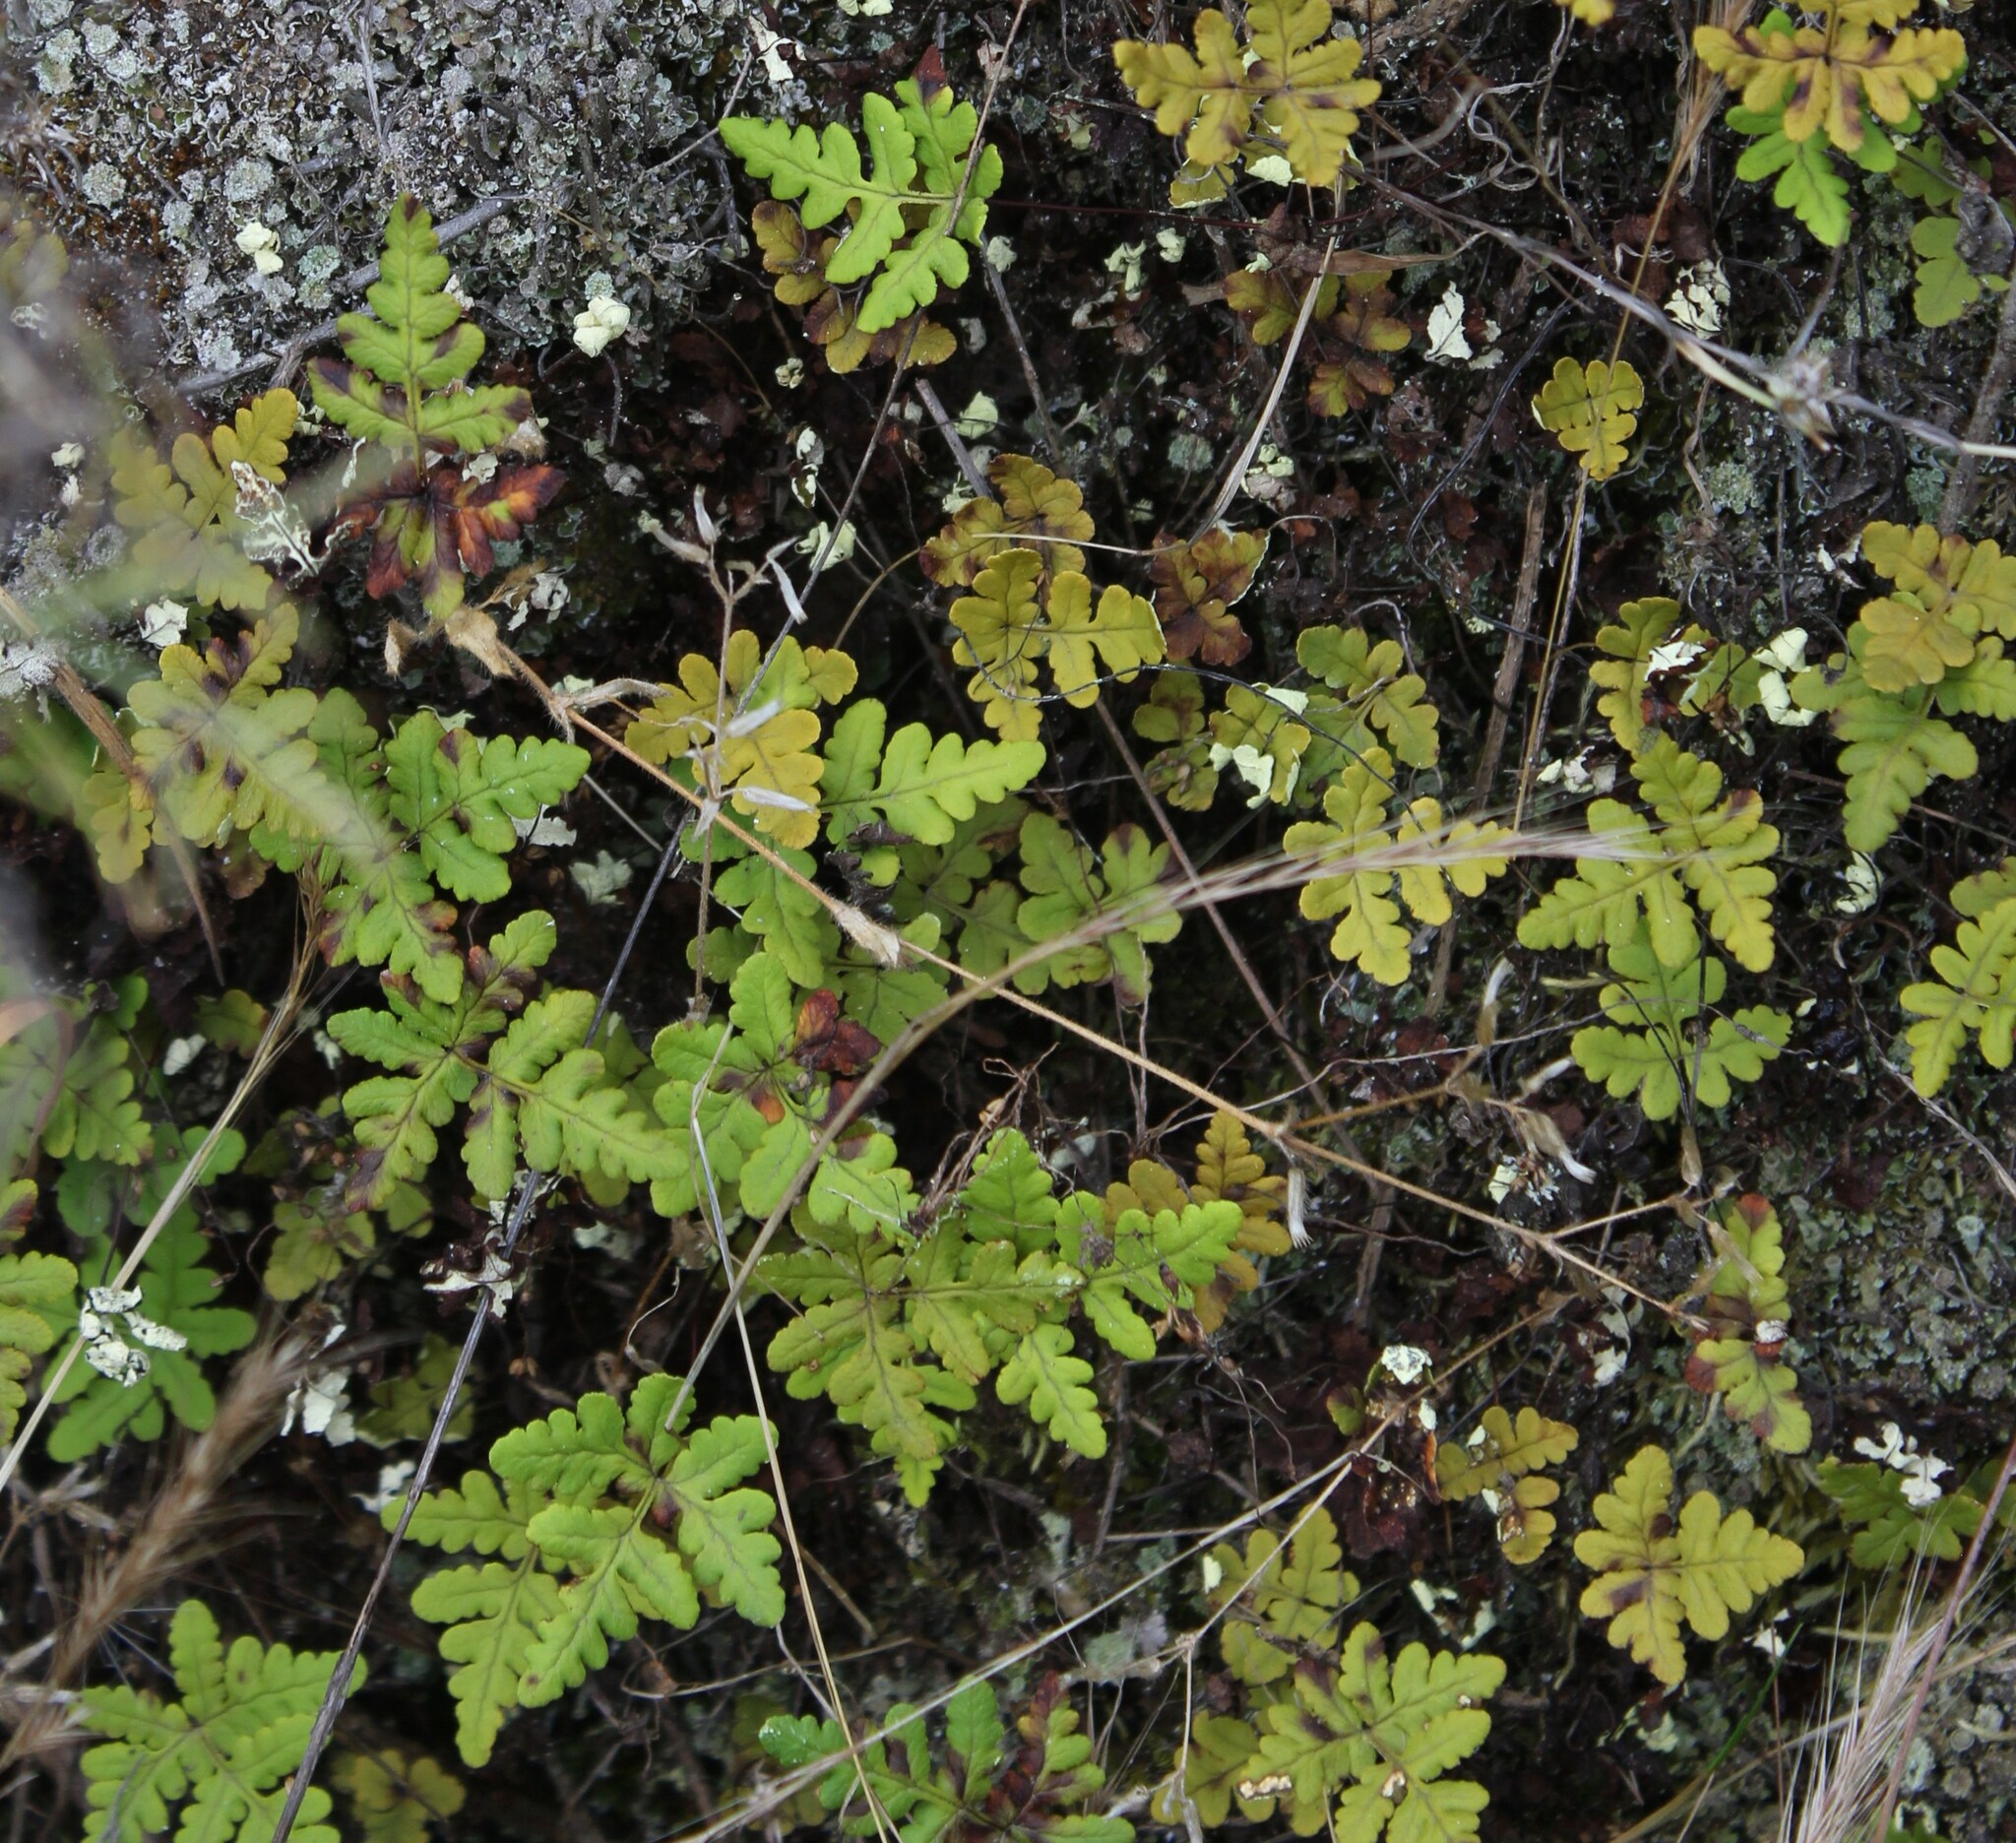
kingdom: Plantae
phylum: Tracheophyta
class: Polypodiopsida
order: Polypodiales
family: Pteridaceae
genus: Pentagramma
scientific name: Pentagramma triangularis
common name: Gold fern
